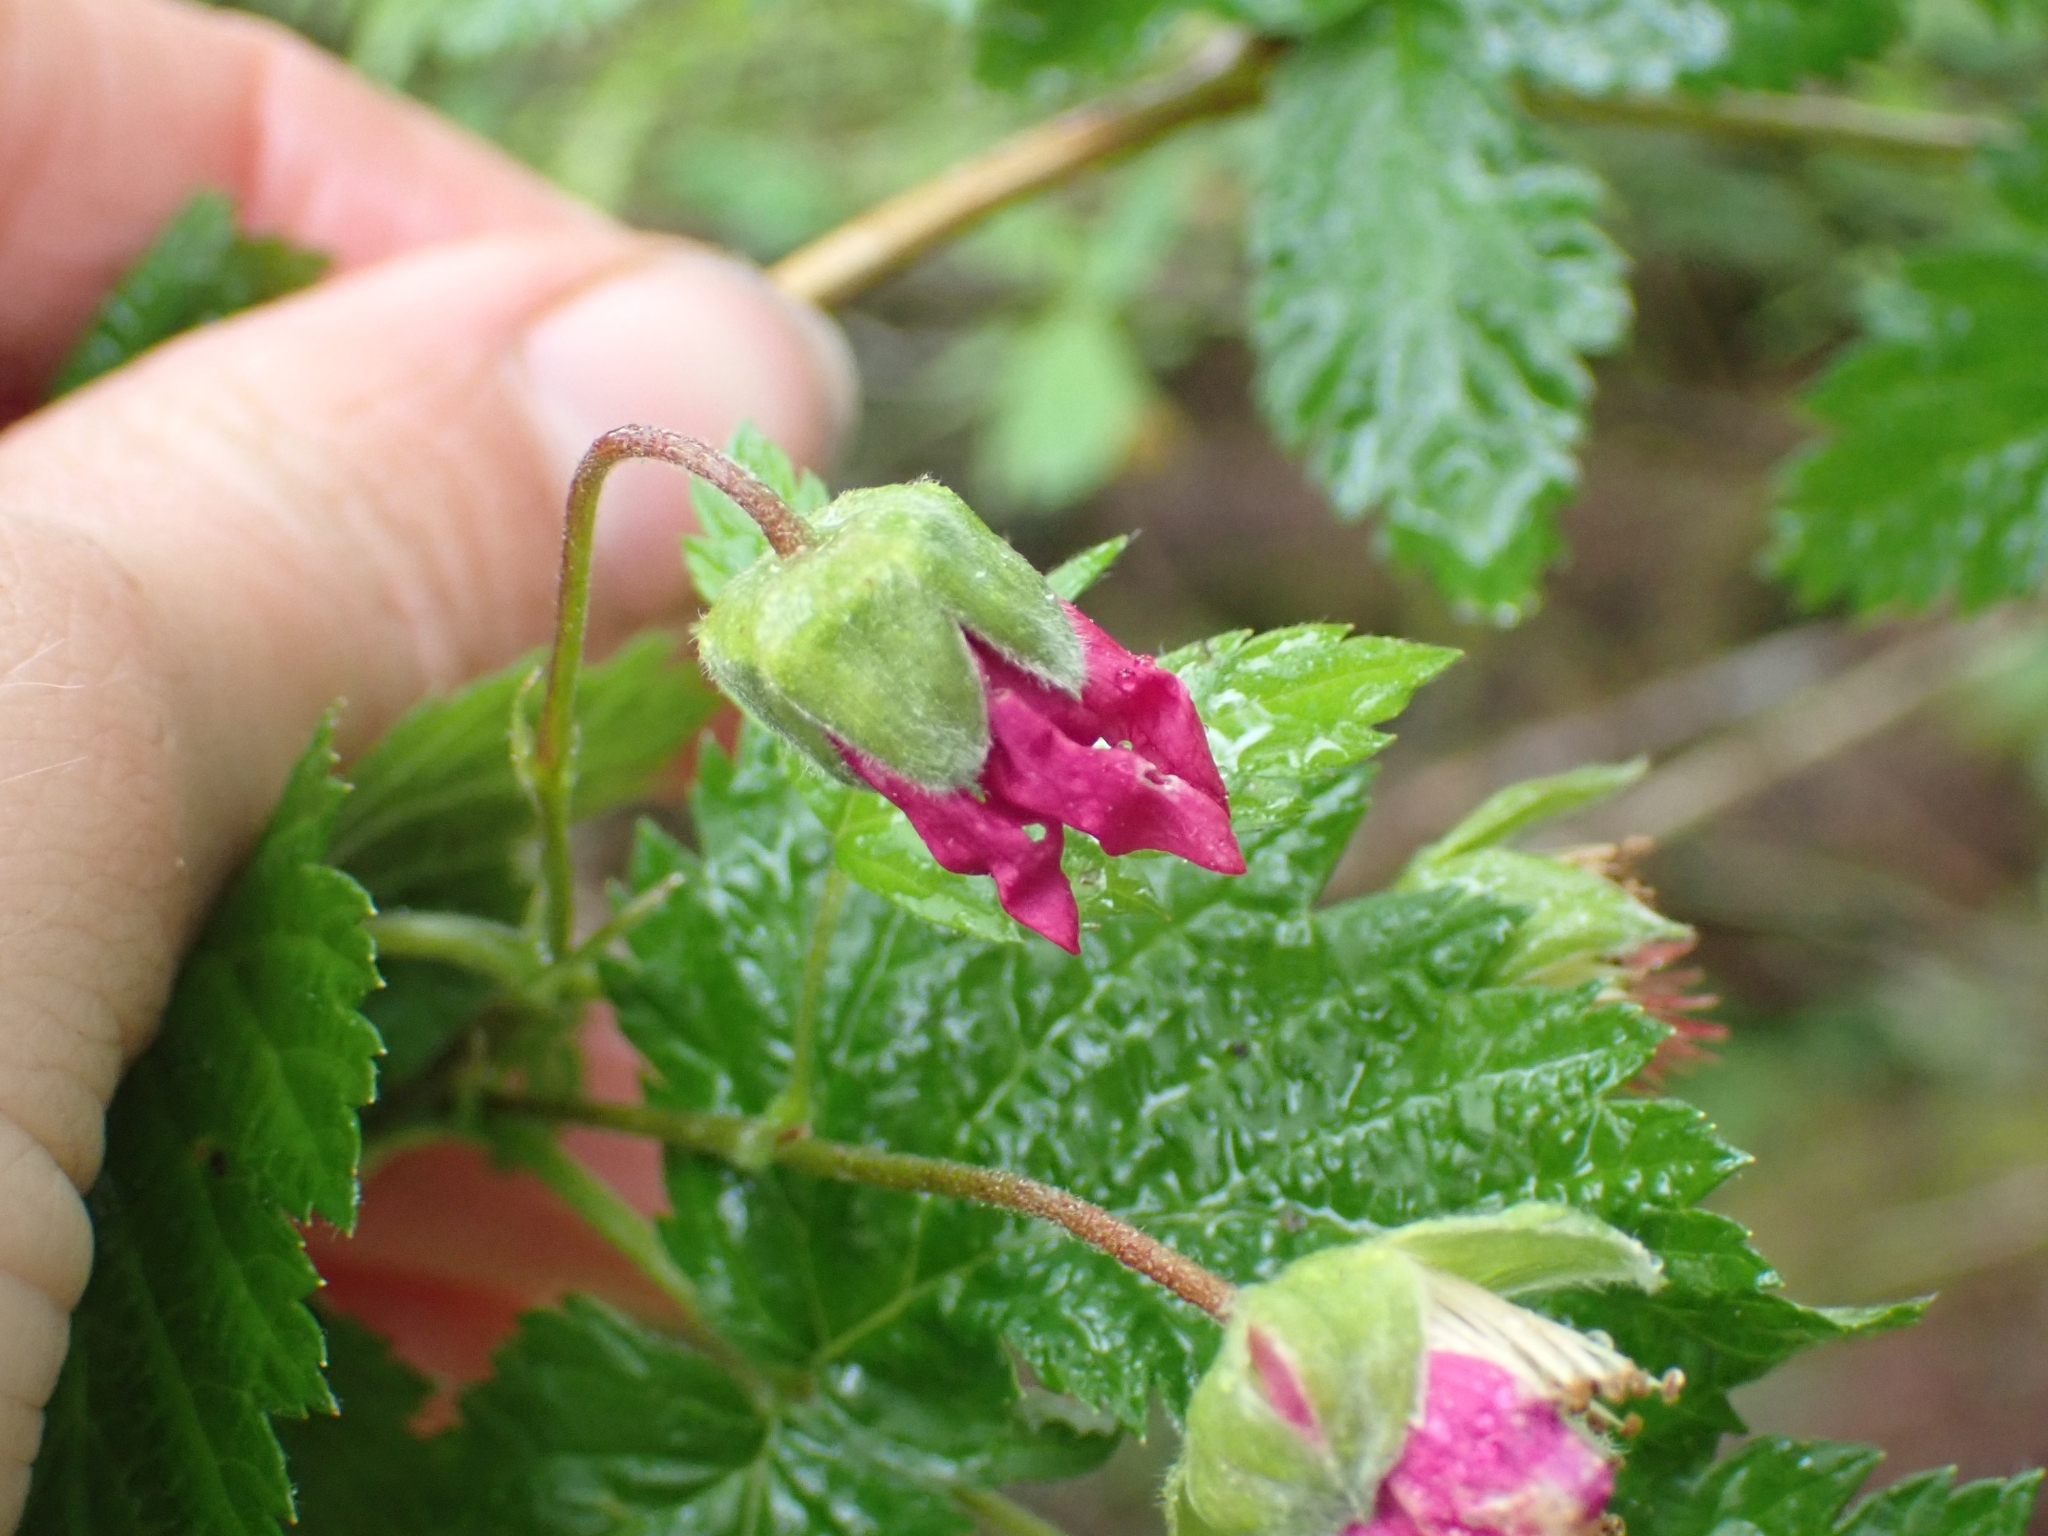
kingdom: Plantae
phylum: Tracheophyta
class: Magnoliopsida
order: Rosales
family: Rosaceae
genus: Rubus
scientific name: Rubus spectabilis
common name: Salmonberry
